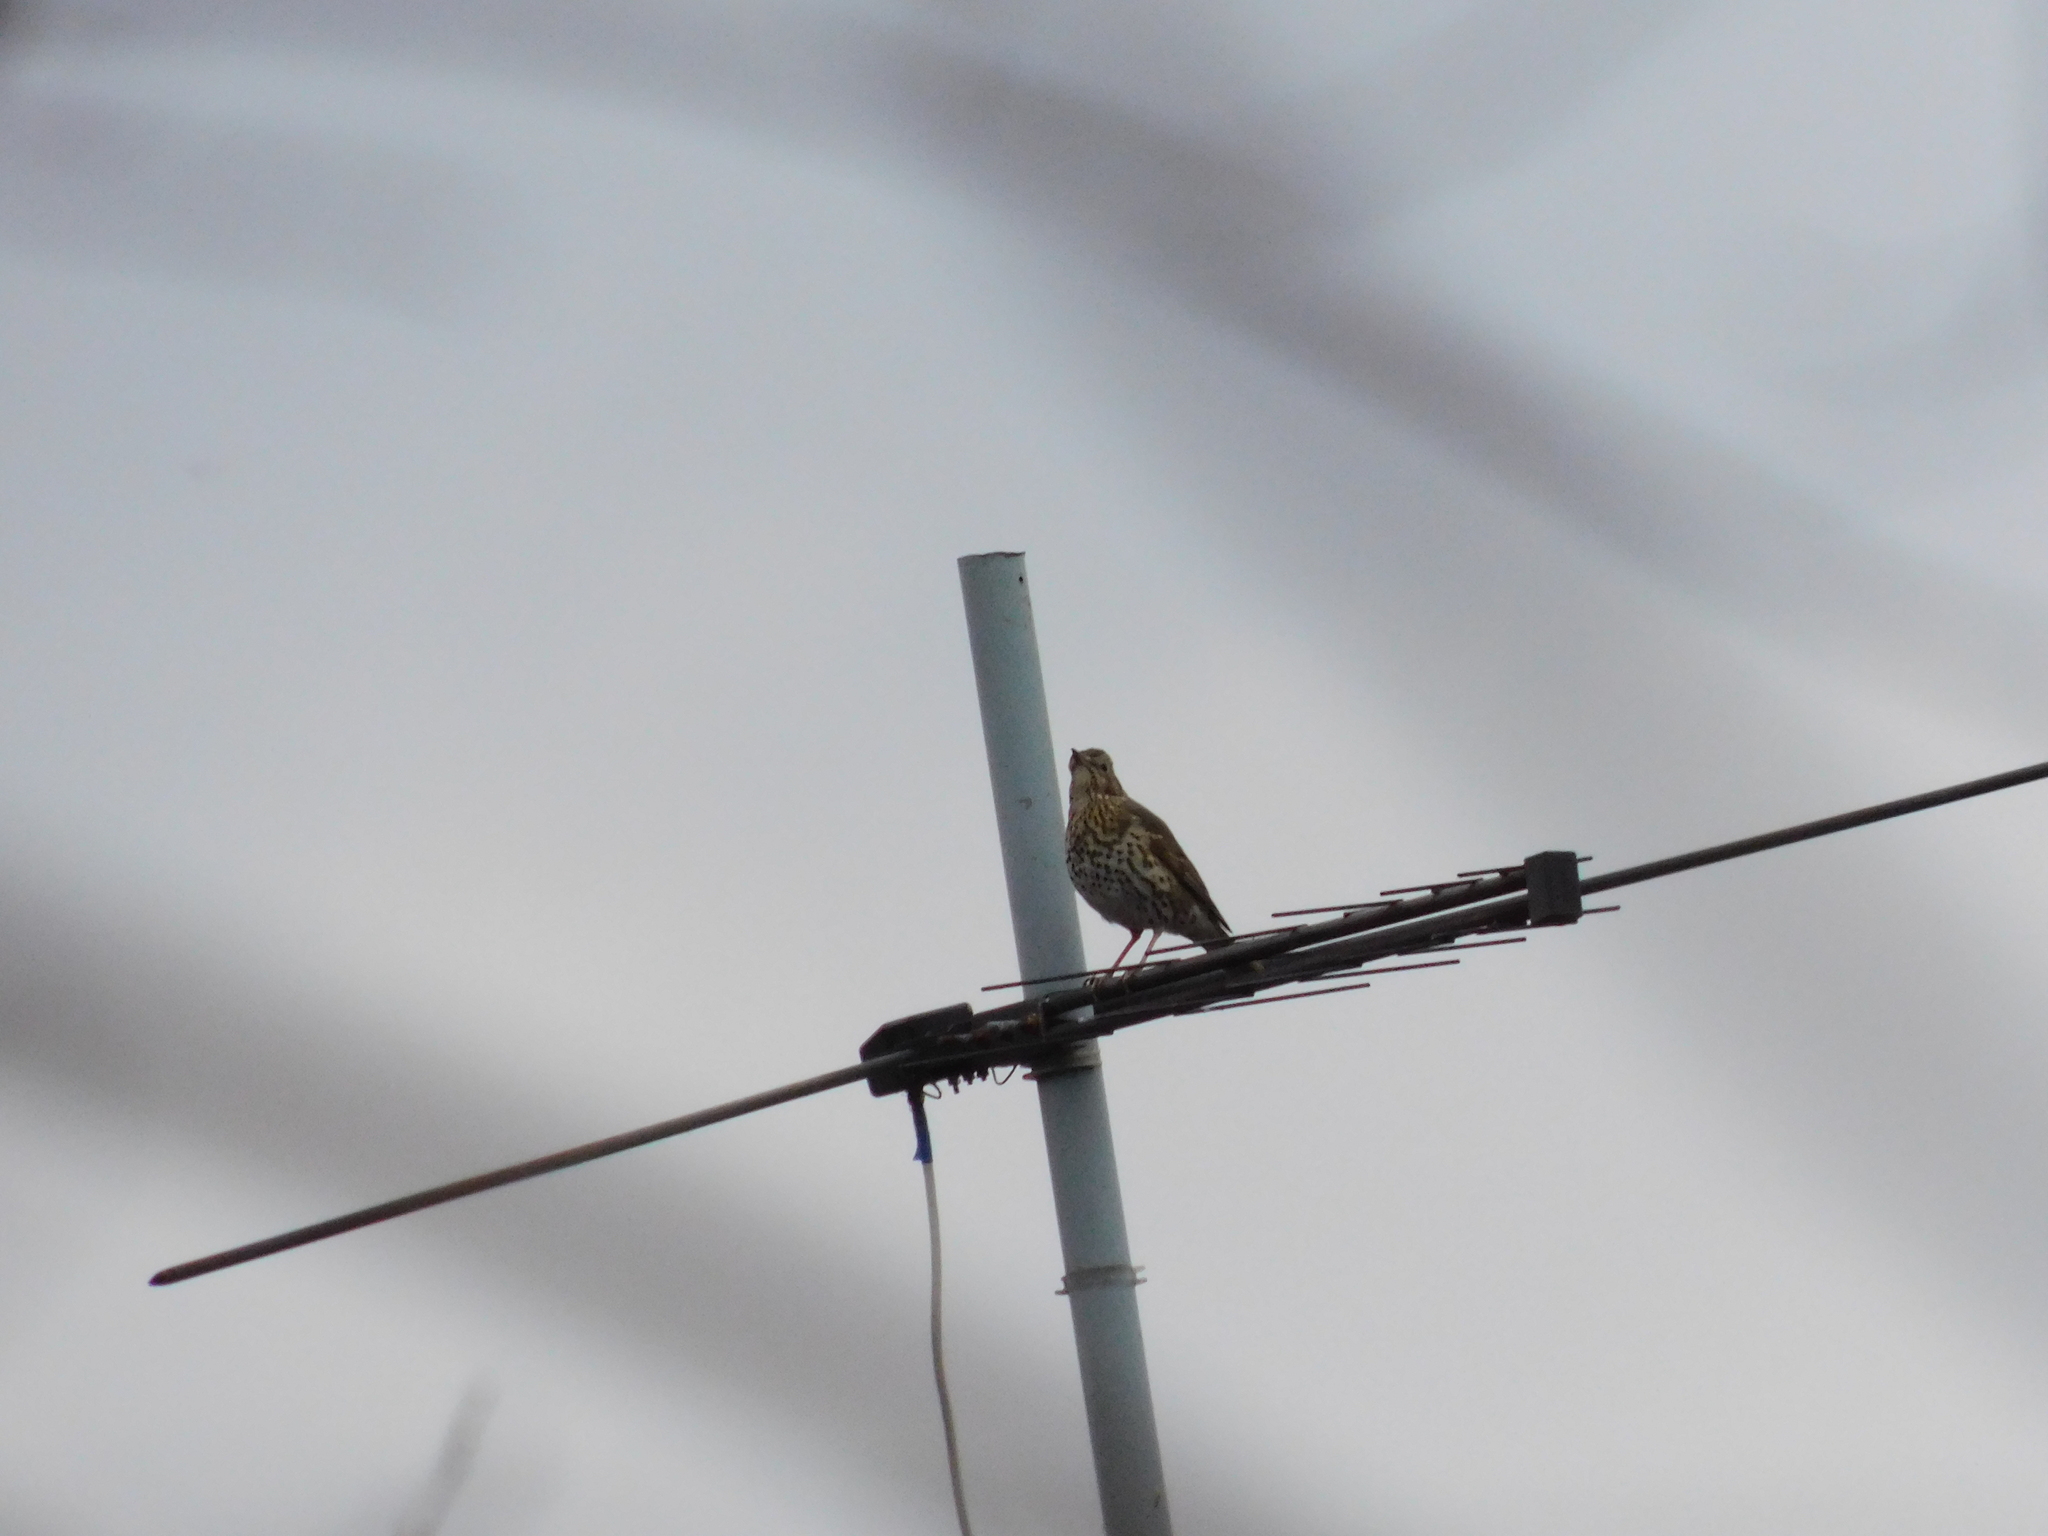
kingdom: Animalia
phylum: Chordata
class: Aves
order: Passeriformes
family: Turdidae
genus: Turdus
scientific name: Turdus philomelos
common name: Song thrush
